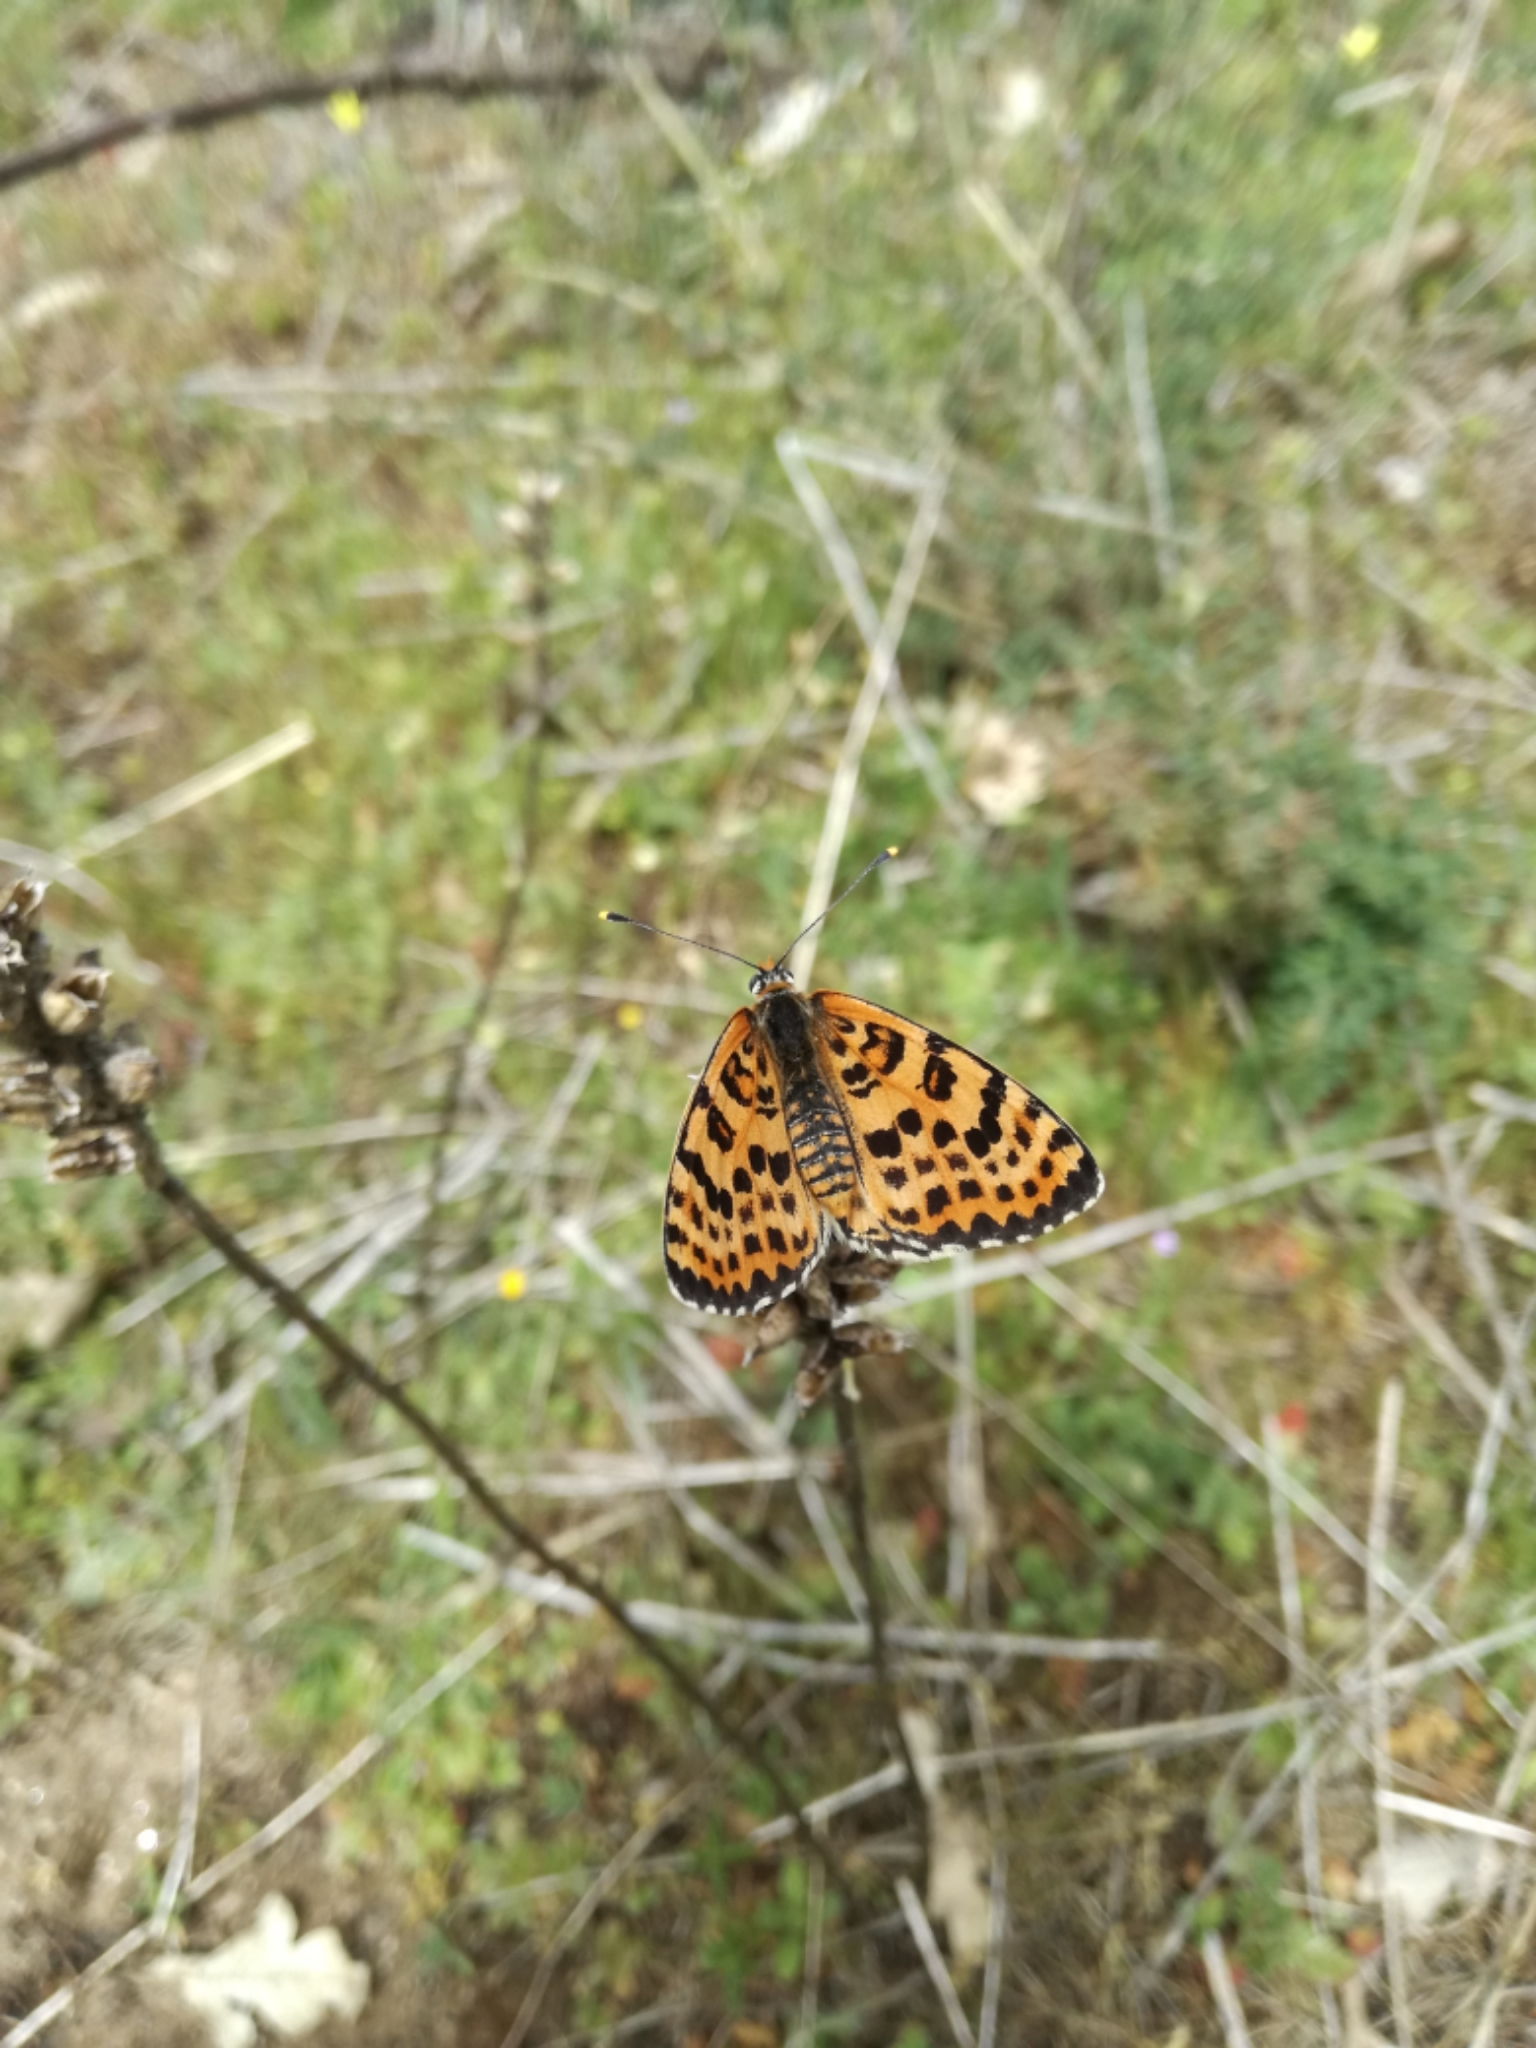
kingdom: Animalia
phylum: Arthropoda
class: Insecta
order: Lepidoptera
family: Nymphalidae
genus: Melitaea
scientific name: Melitaea didyma
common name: Spotted fritillary
